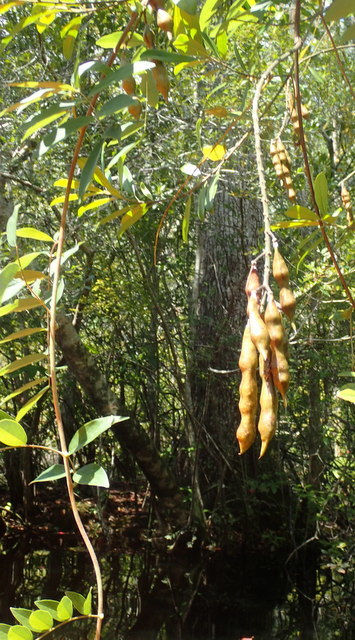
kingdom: Plantae
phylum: Tracheophyta
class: Magnoliopsida
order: Fabales
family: Fabaceae
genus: Wisteria
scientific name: Wisteria frutescens
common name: American wisteria
